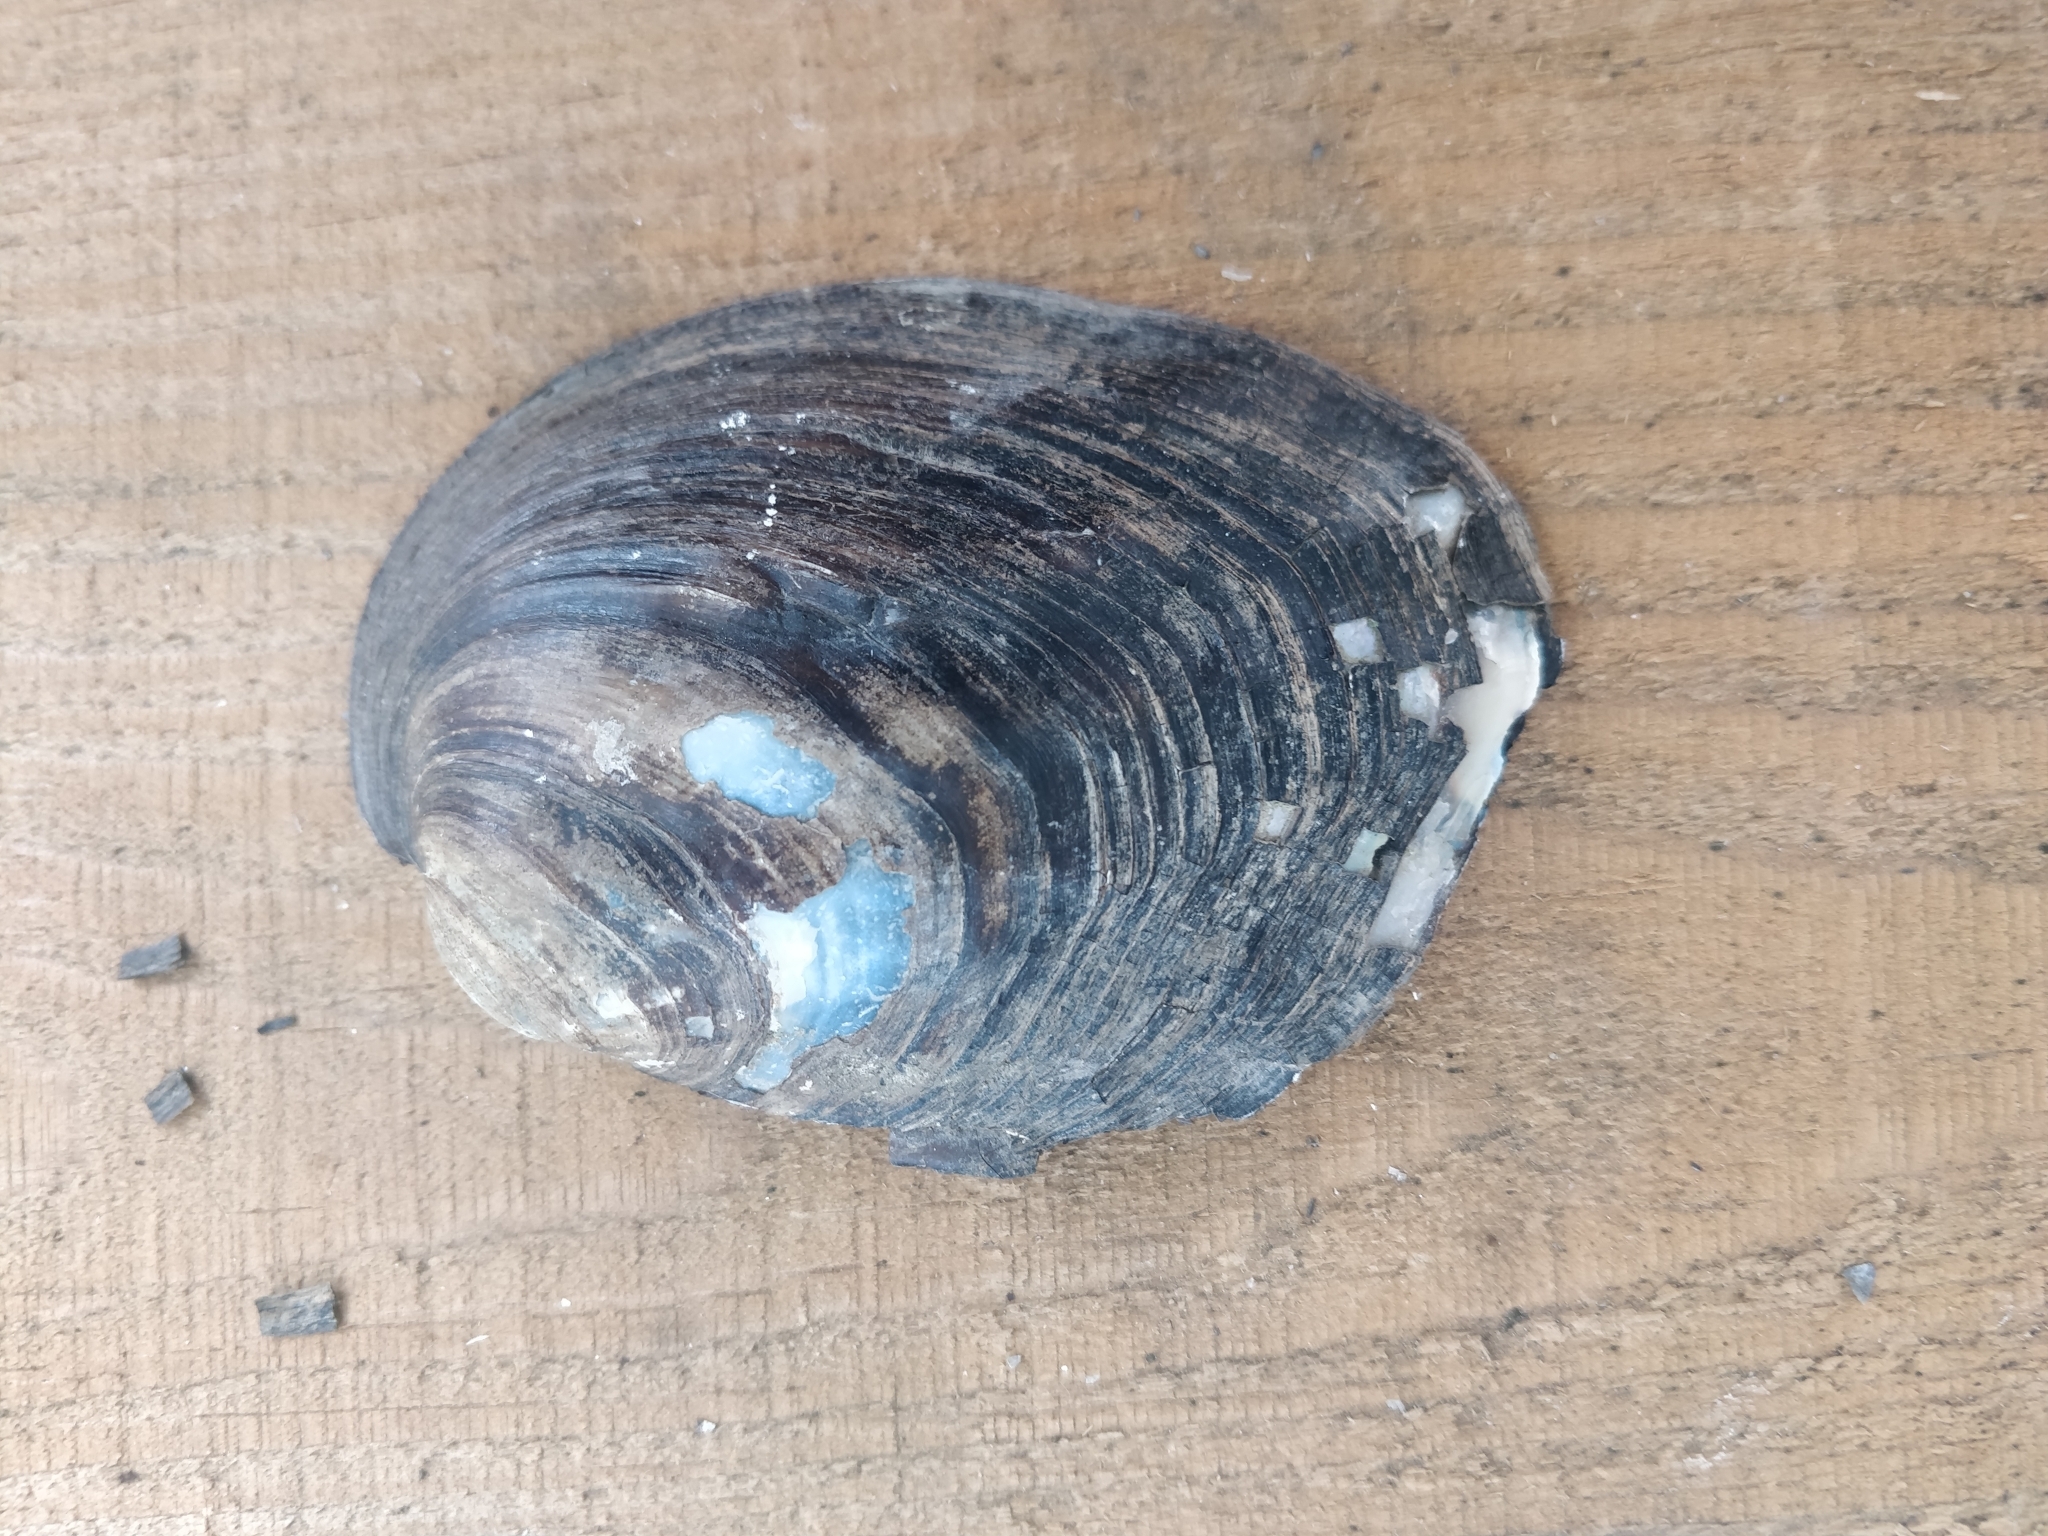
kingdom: Animalia
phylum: Mollusca
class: Bivalvia
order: Unionida
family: Unionidae
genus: Amblema
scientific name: Amblema plicata
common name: Threeridge
